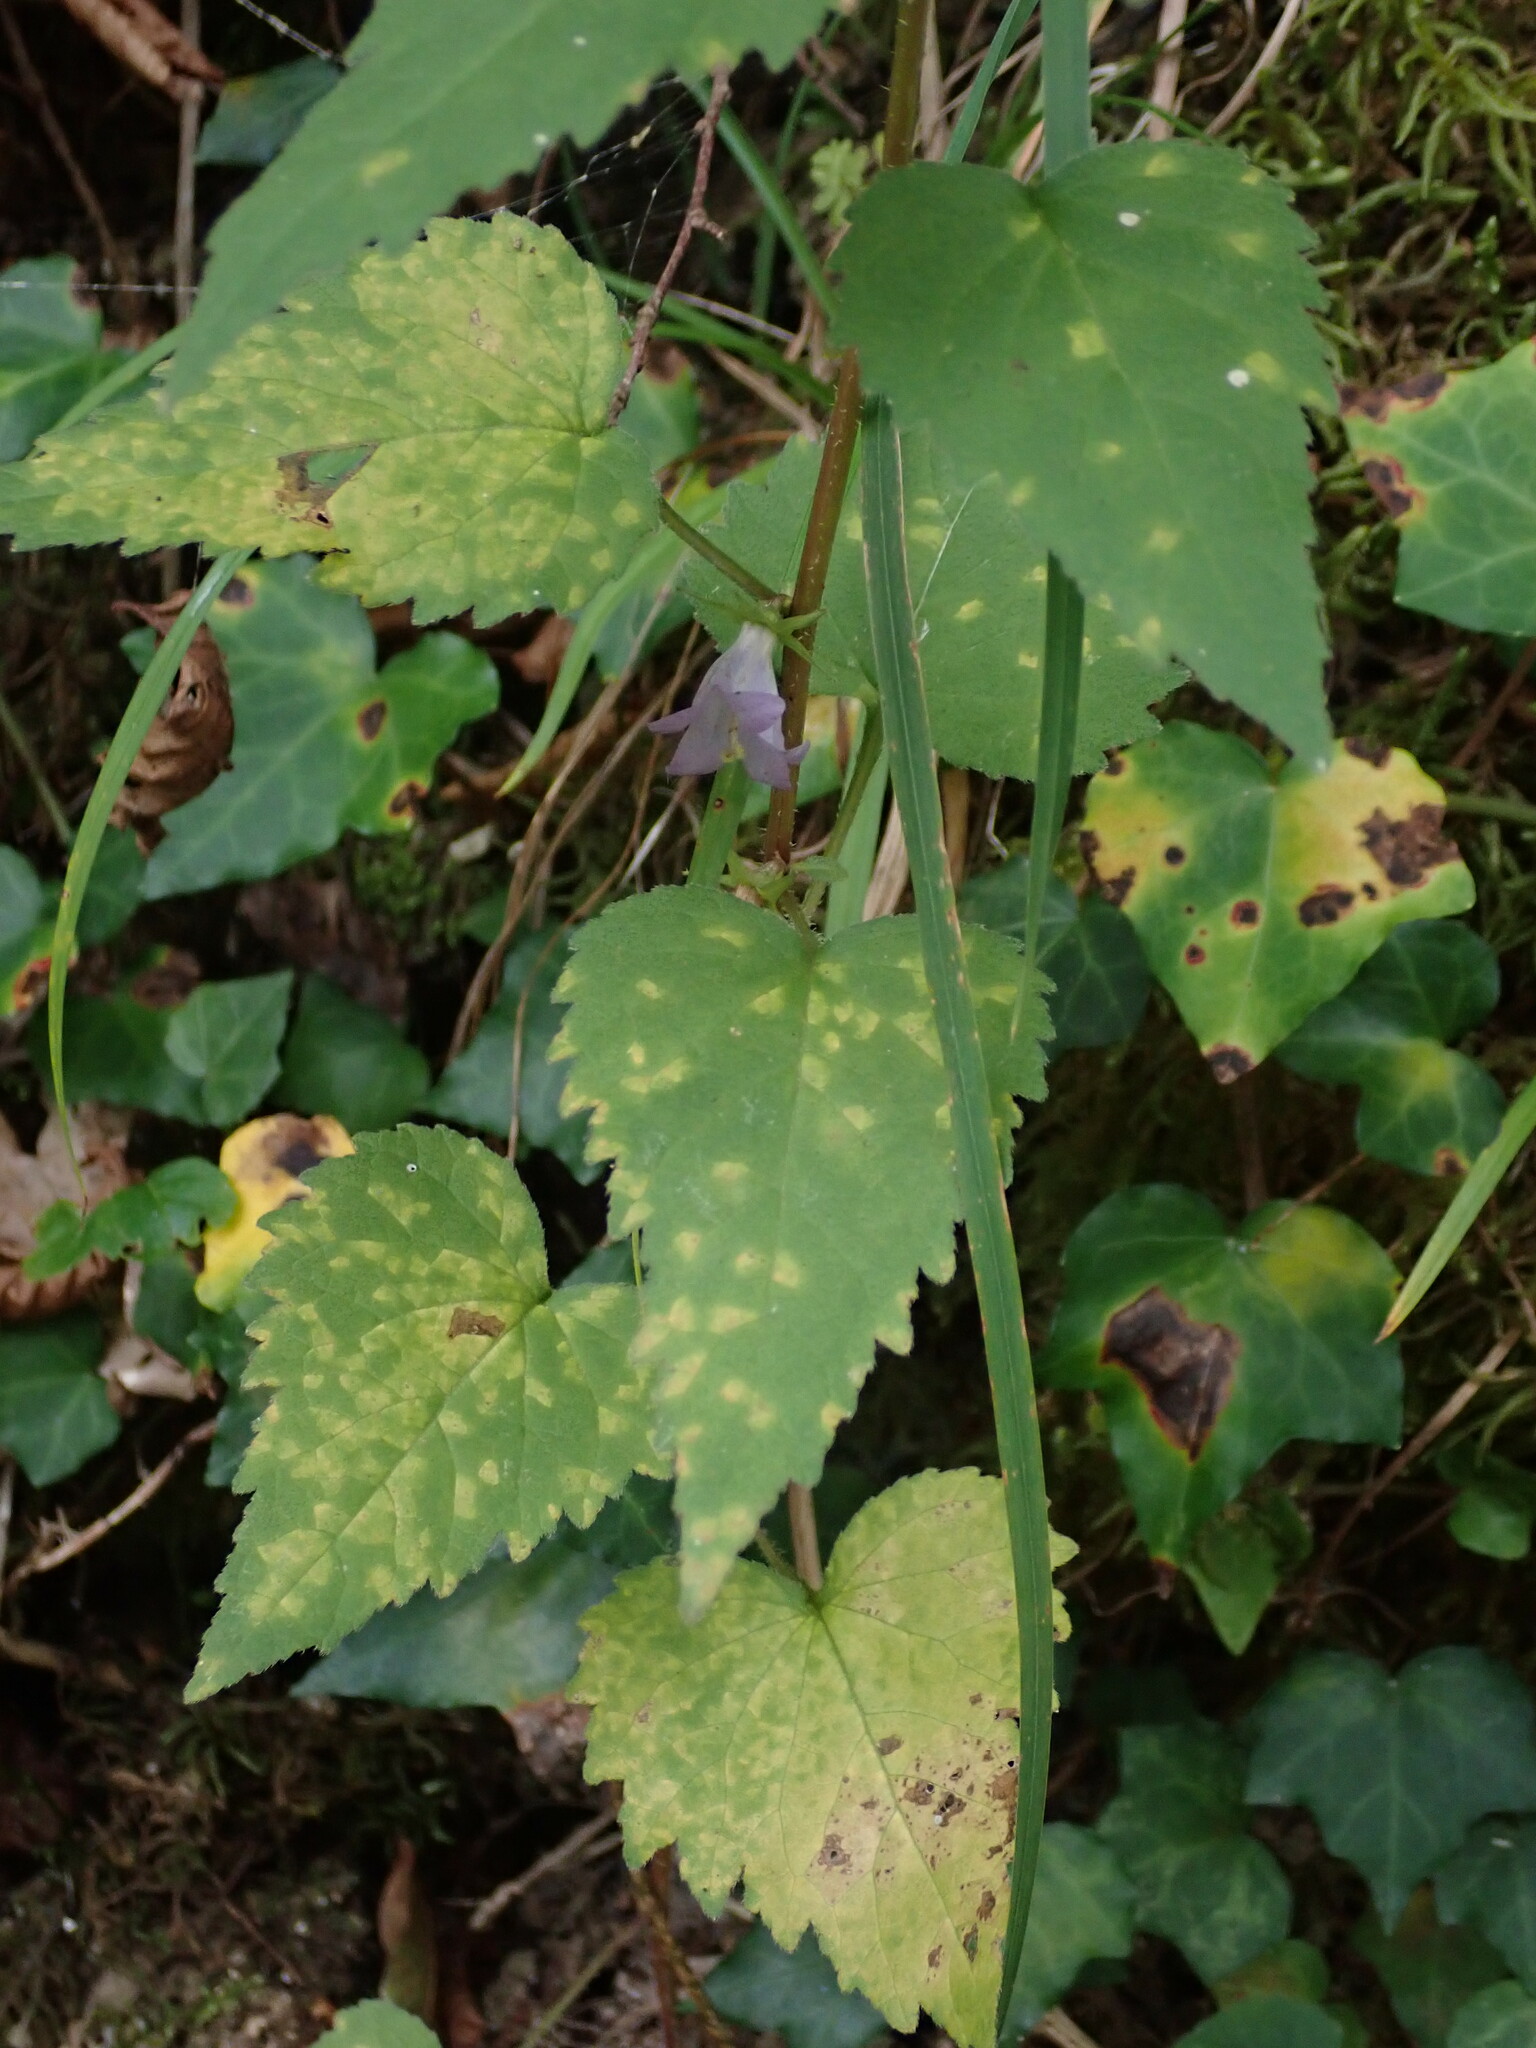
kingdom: Plantae
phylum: Tracheophyta
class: Magnoliopsida
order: Asterales
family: Campanulaceae
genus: Campanula
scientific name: Campanula trachelium
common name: Nettle-leaved bellflower
